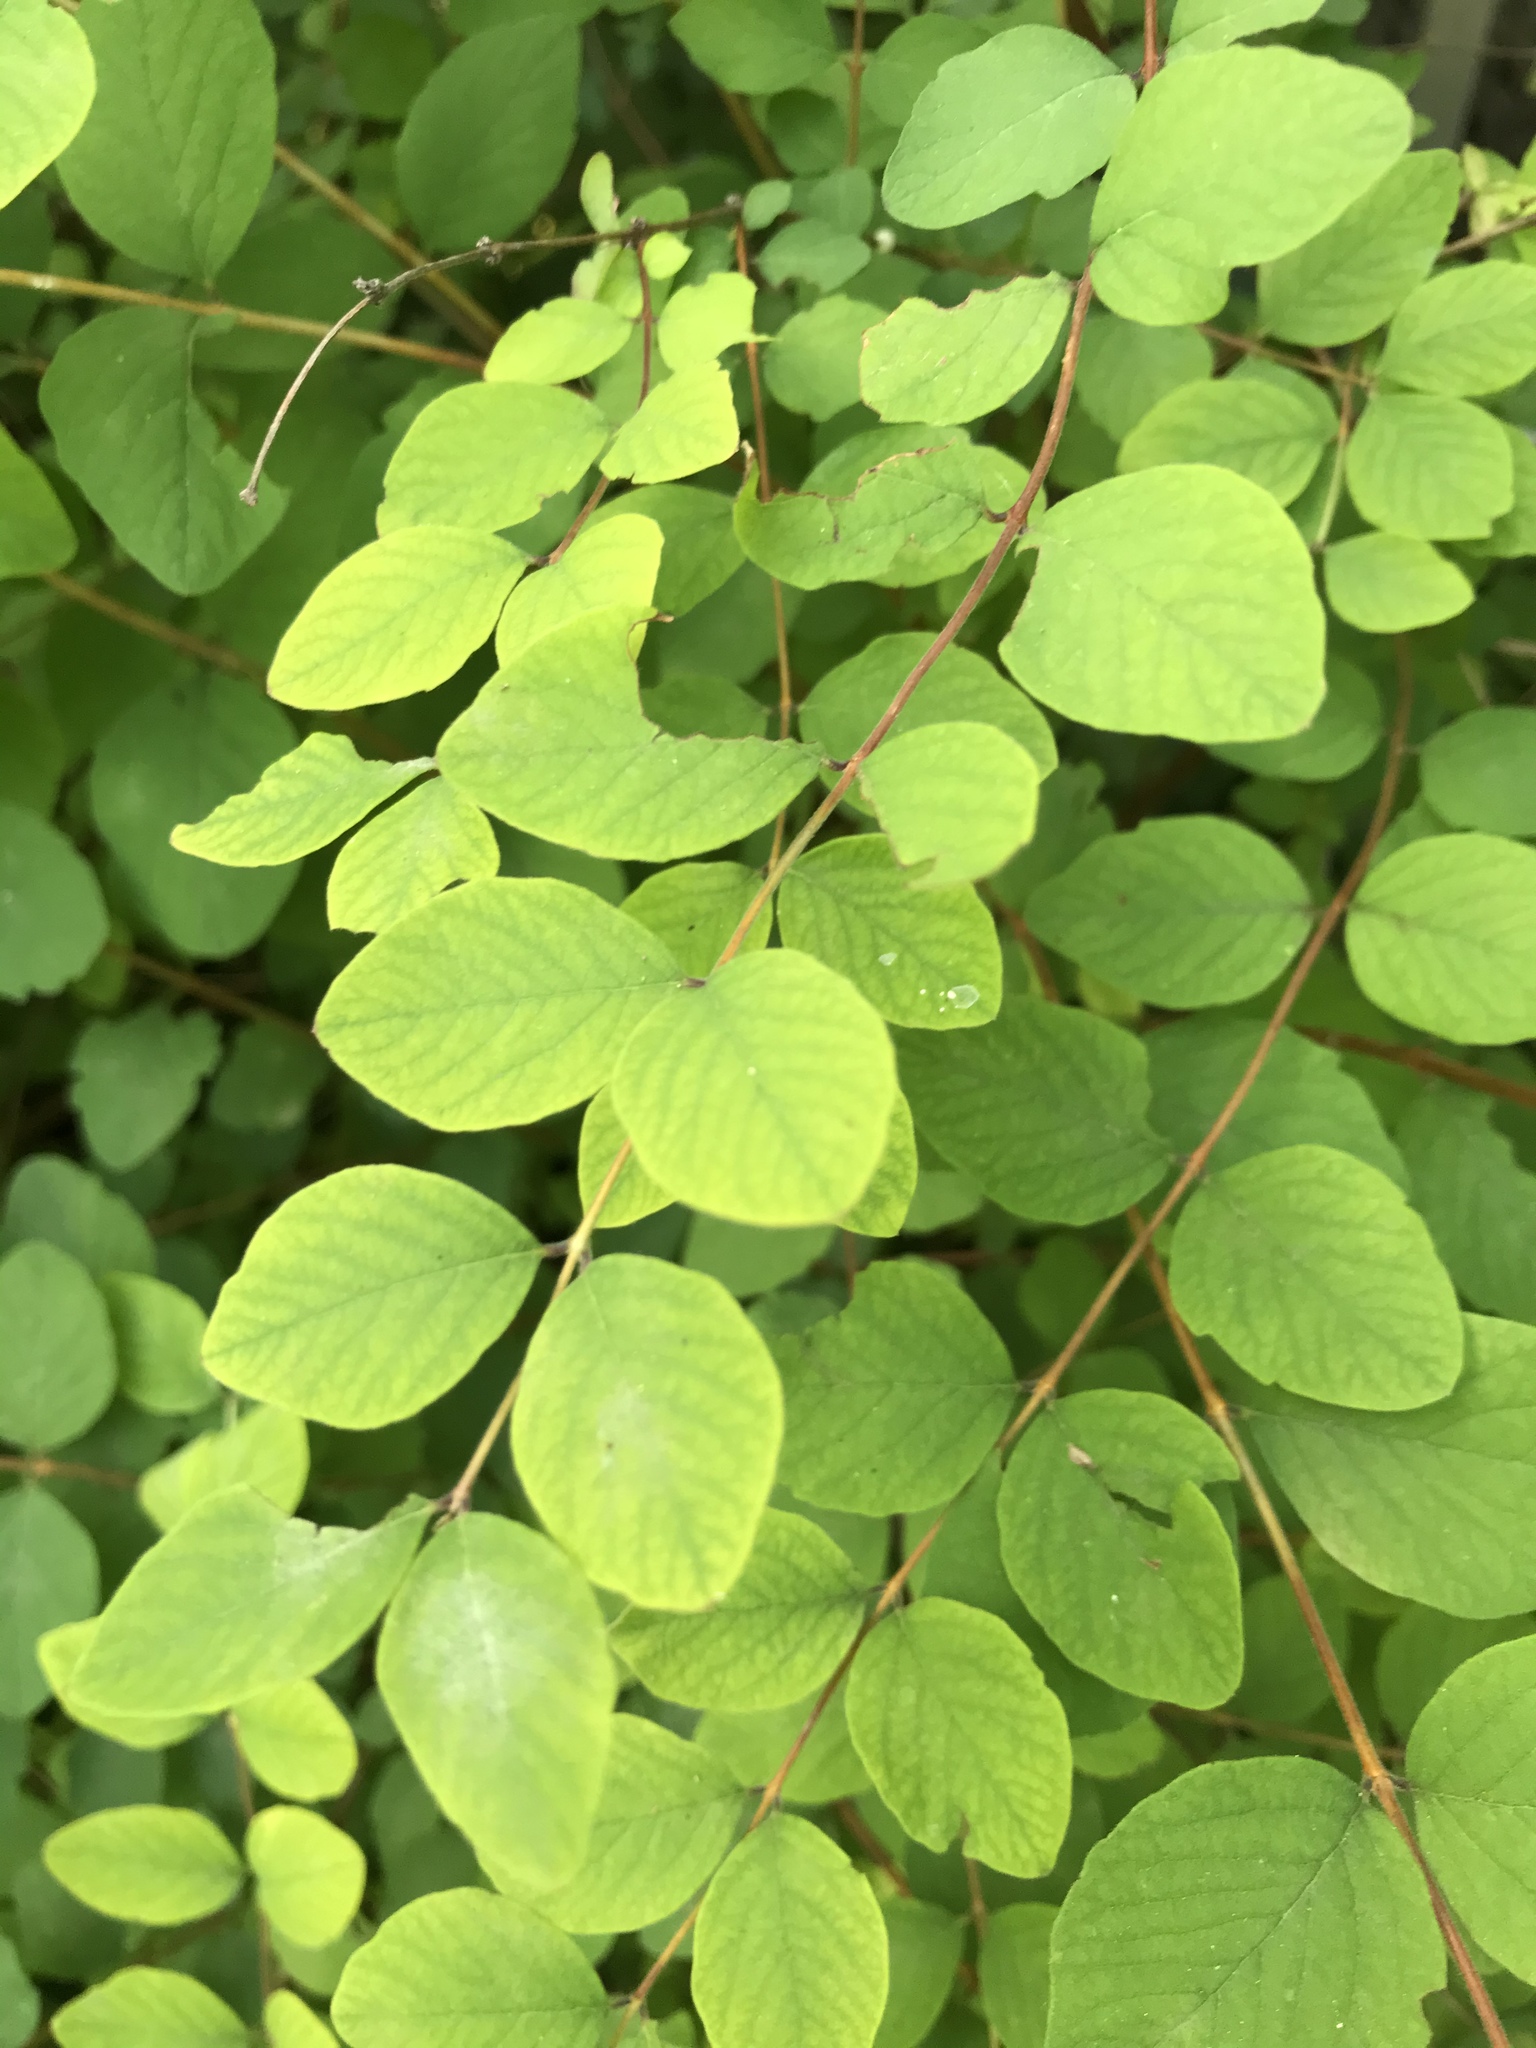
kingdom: Plantae
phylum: Tracheophyta
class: Magnoliopsida
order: Dipsacales
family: Caprifoliaceae
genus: Symphoricarpos
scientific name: Symphoricarpos orbiculatus
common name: Coralberry
